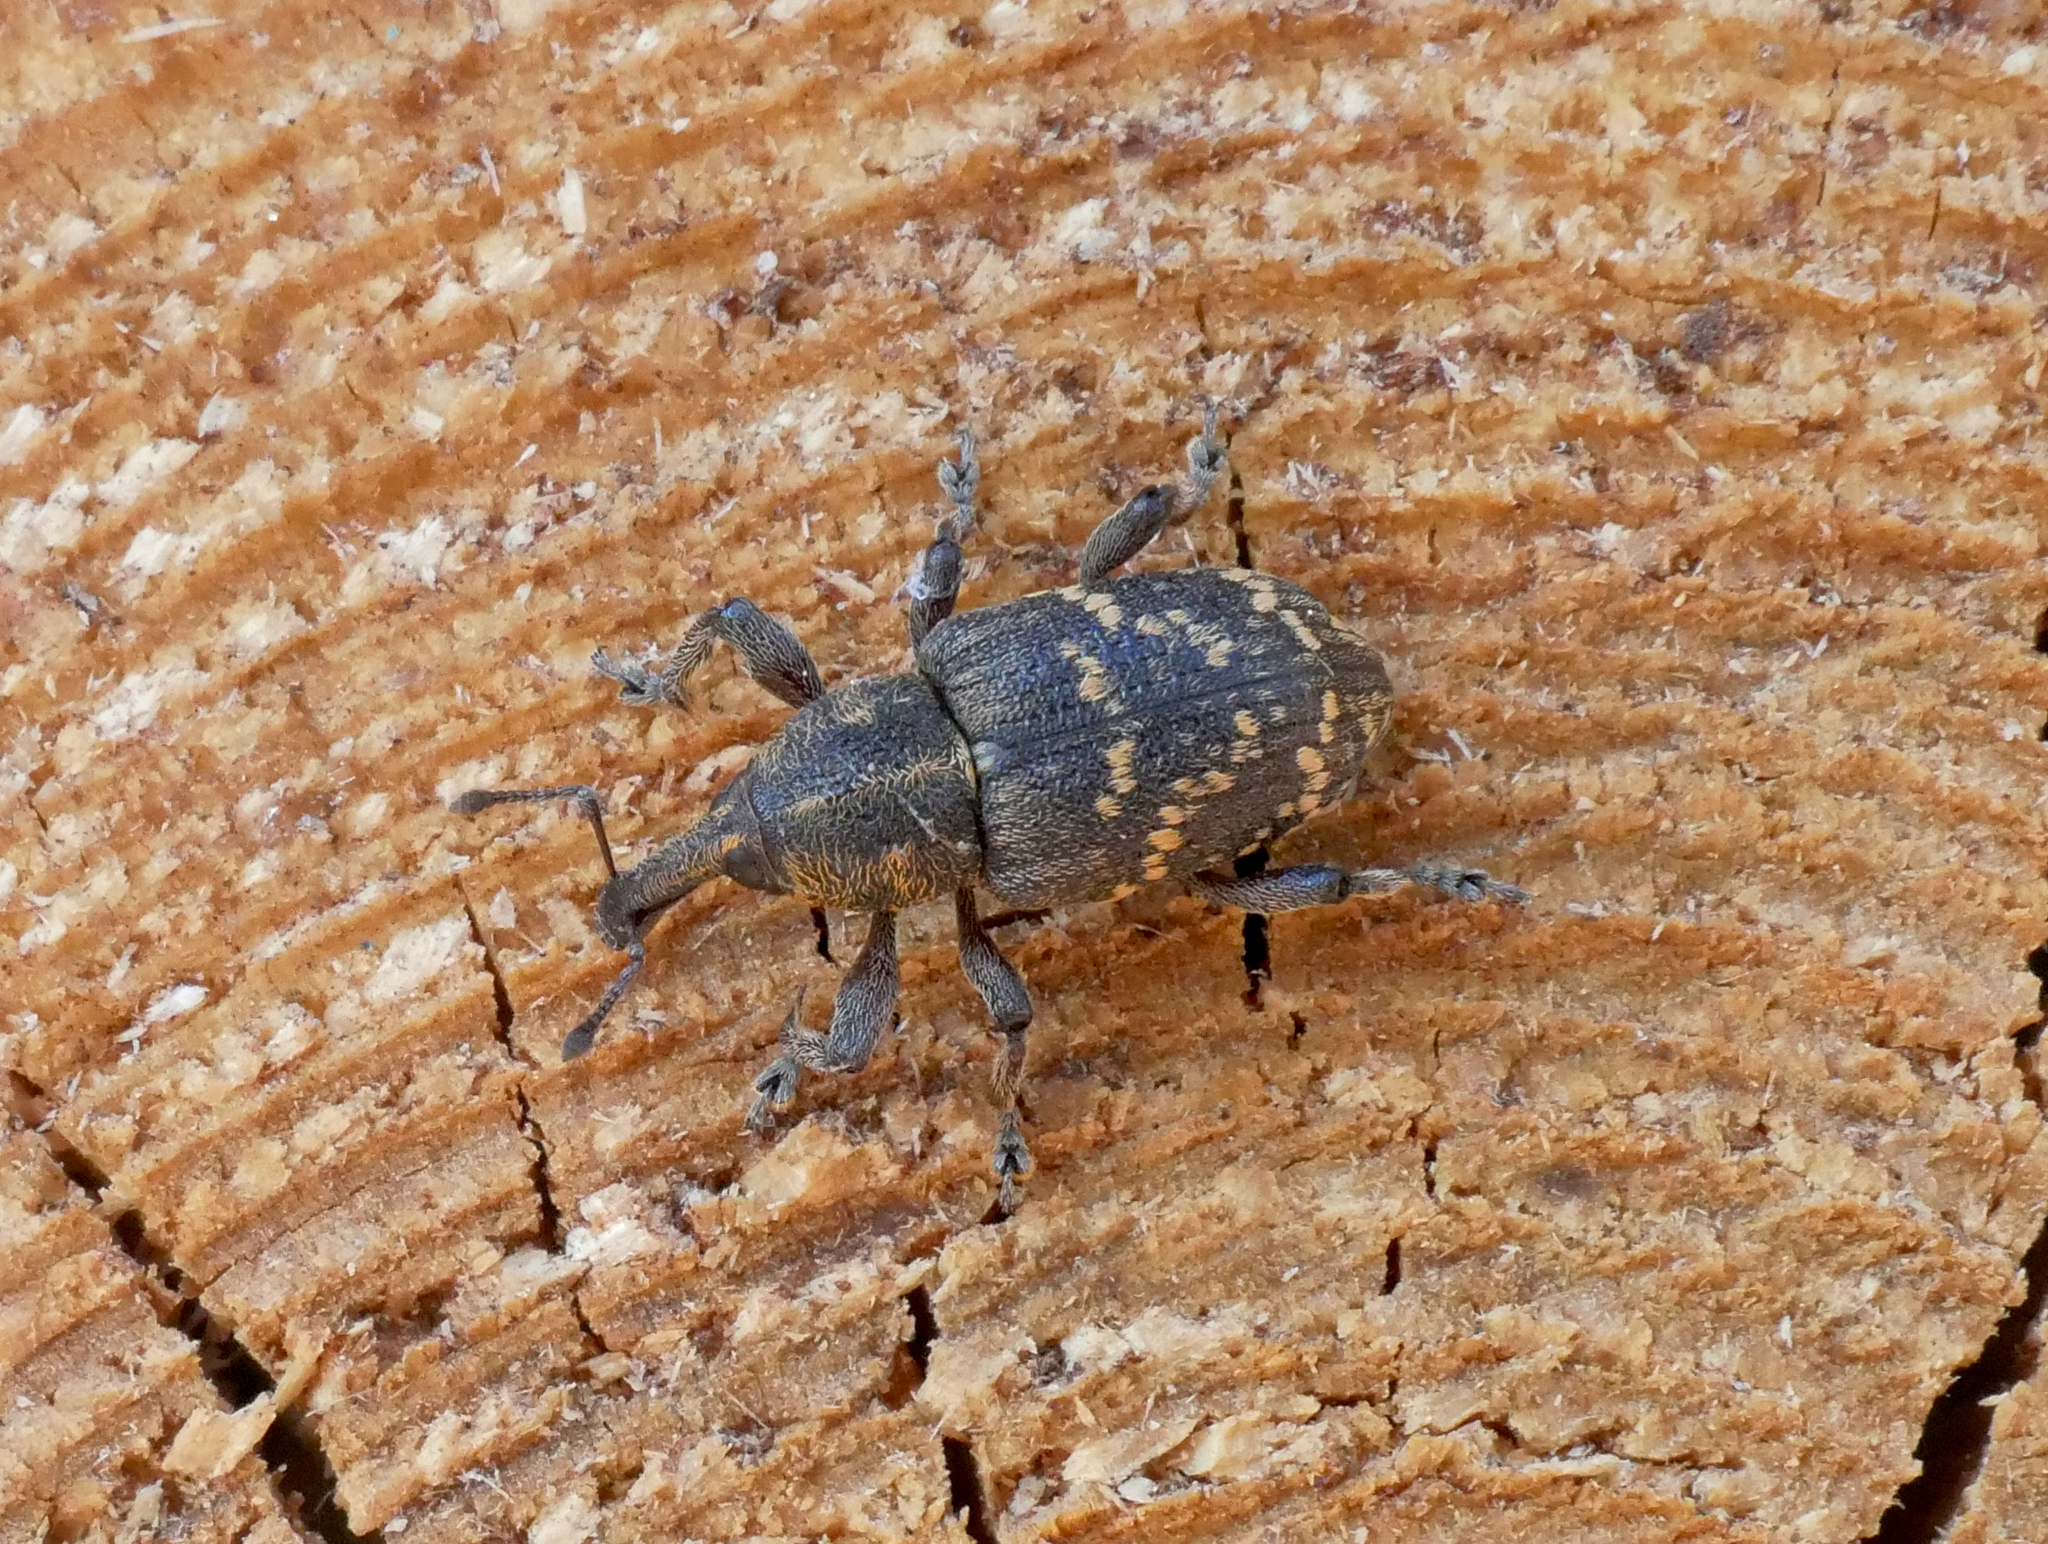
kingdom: Animalia
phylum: Arthropoda
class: Insecta
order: Coleoptera
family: Curculionidae
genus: Hylobius
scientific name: Hylobius abietis
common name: Large pine weevil
